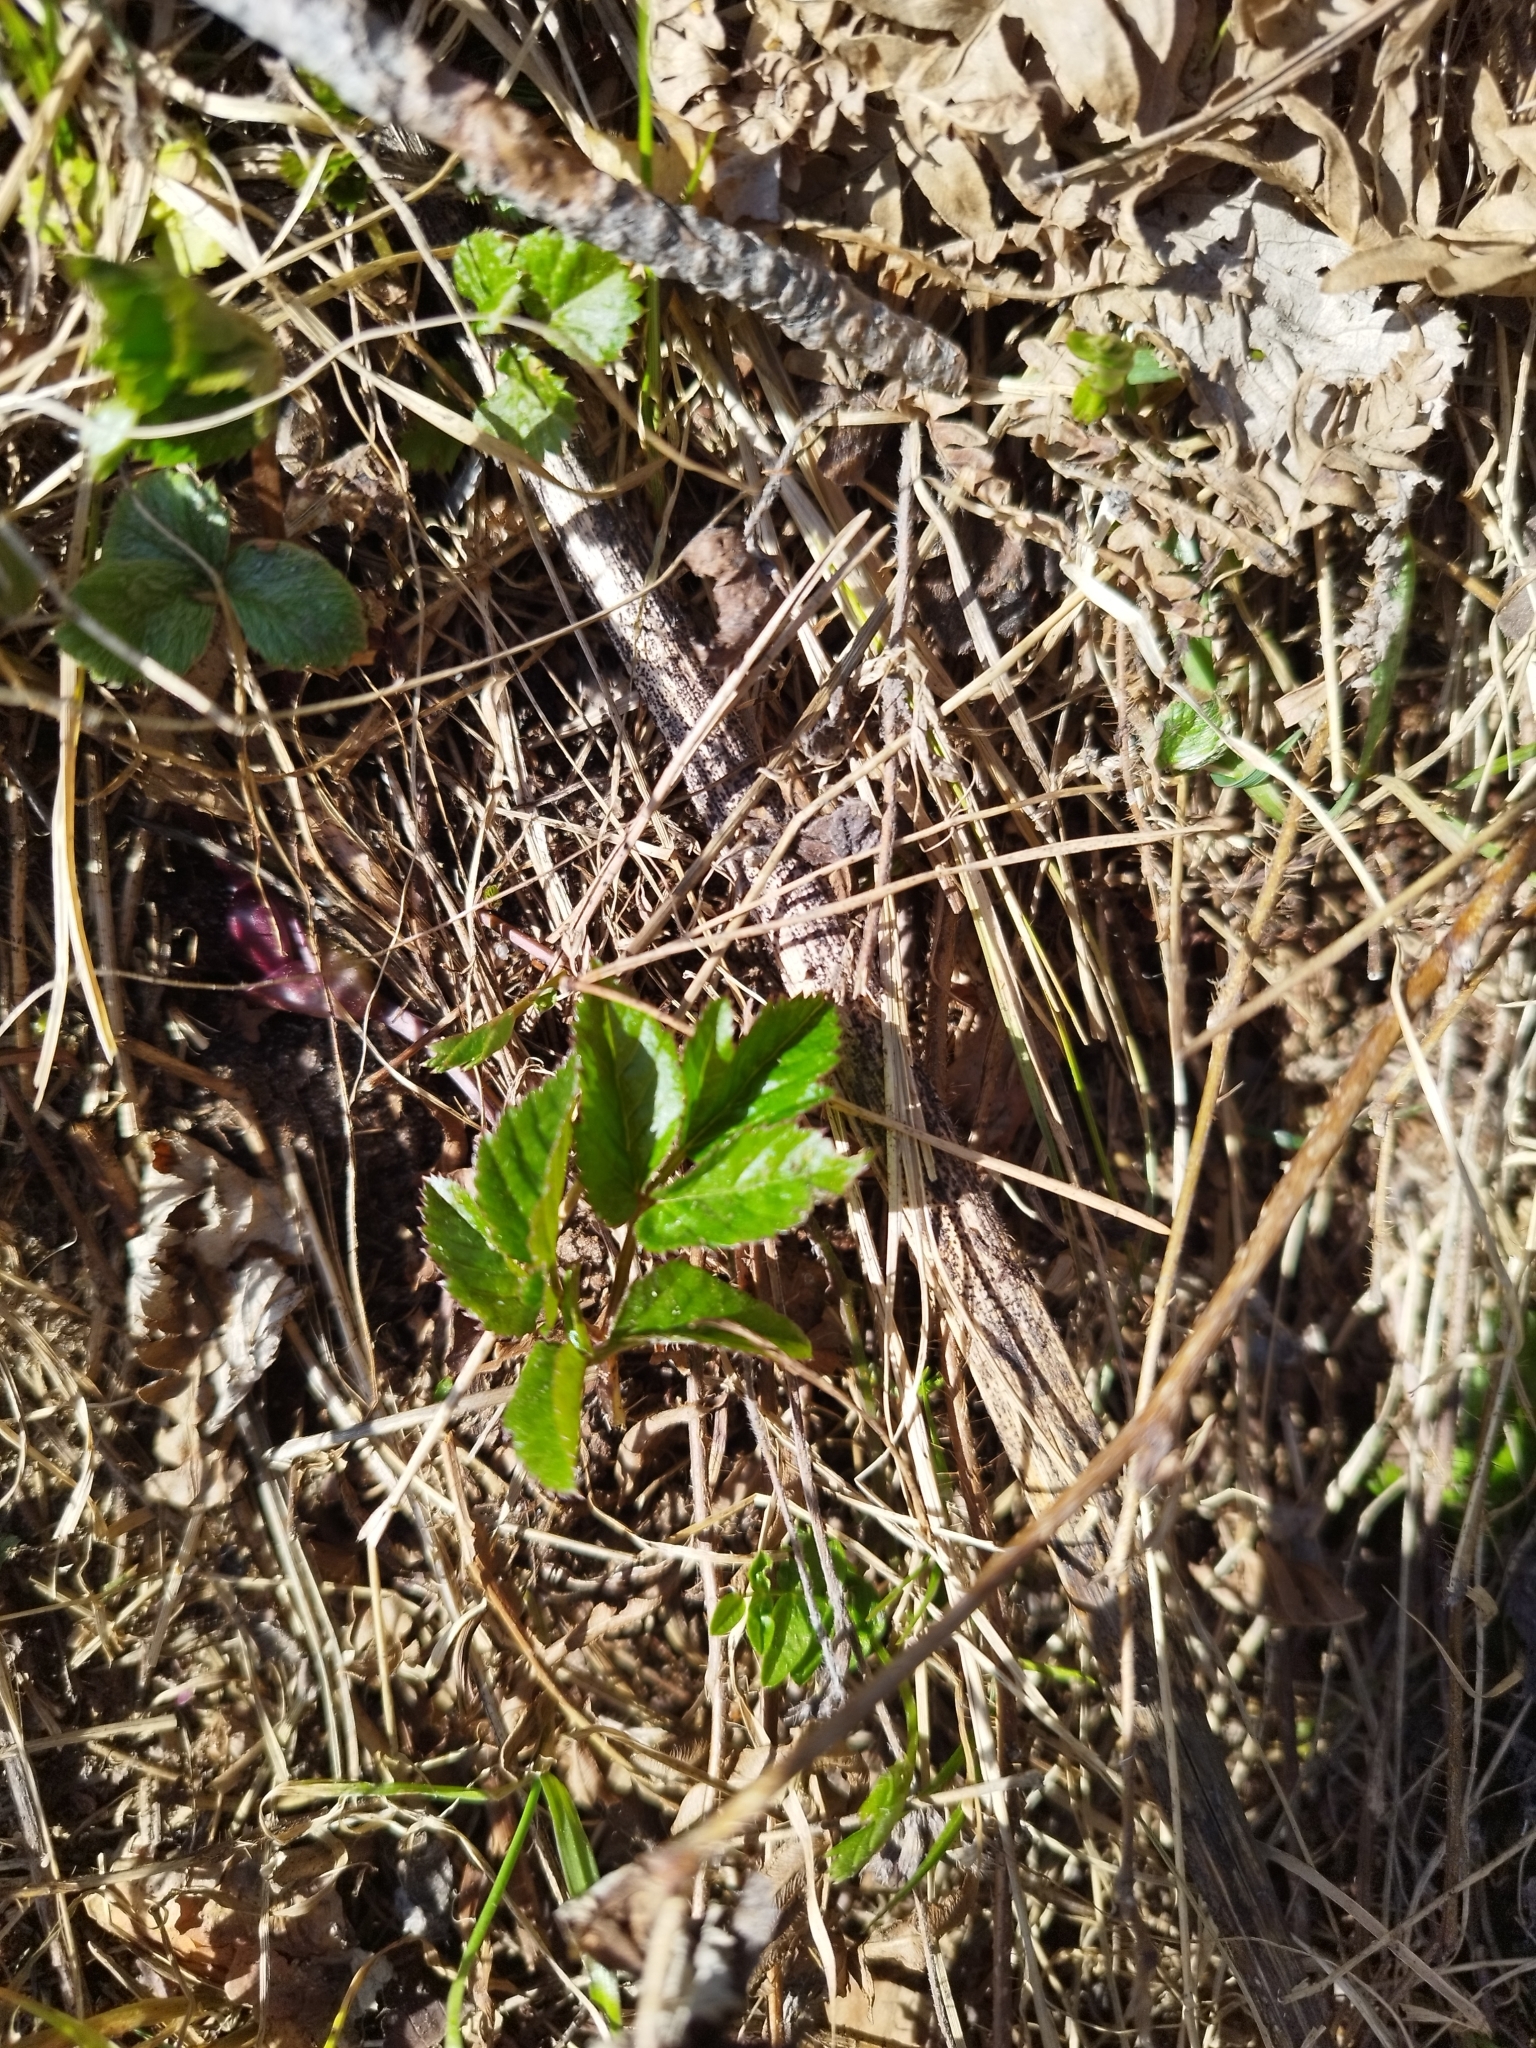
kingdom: Plantae
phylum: Tracheophyta
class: Magnoliopsida
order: Apiales
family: Apiaceae
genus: Aegopodium
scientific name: Aegopodium podagraria
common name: Ground-elder
